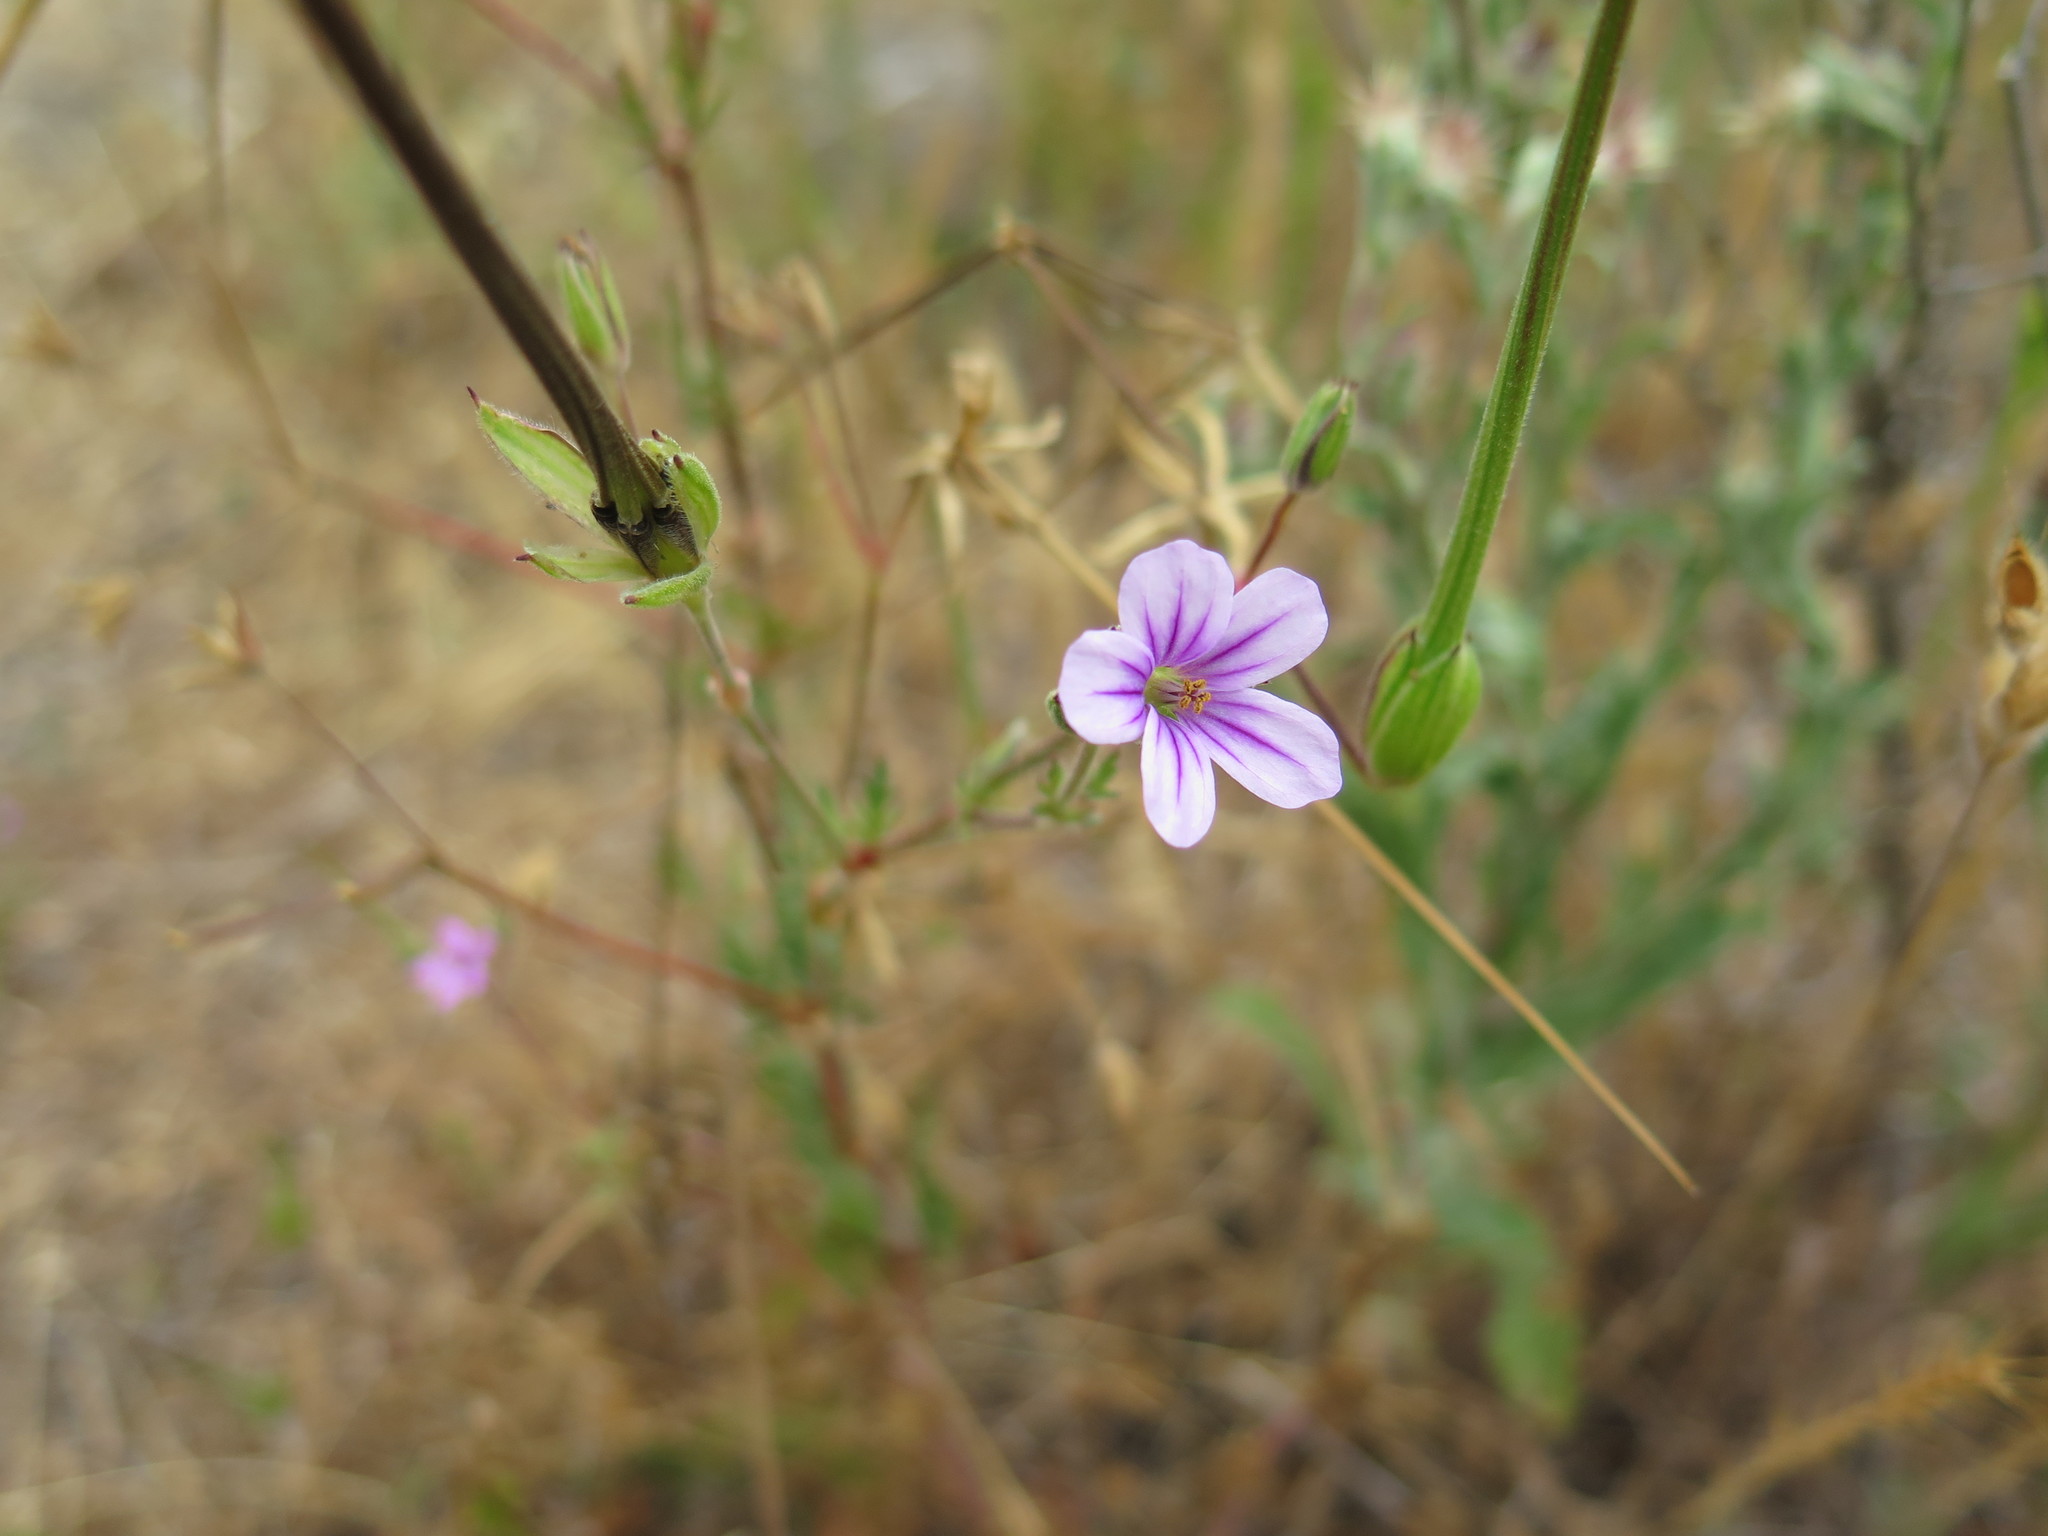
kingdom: Plantae
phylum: Tracheophyta
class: Magnoliopsida
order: Geraniales
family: Geraniaceae
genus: Erodium
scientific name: Erodium botrys
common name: Mediterranean stork's-bill
